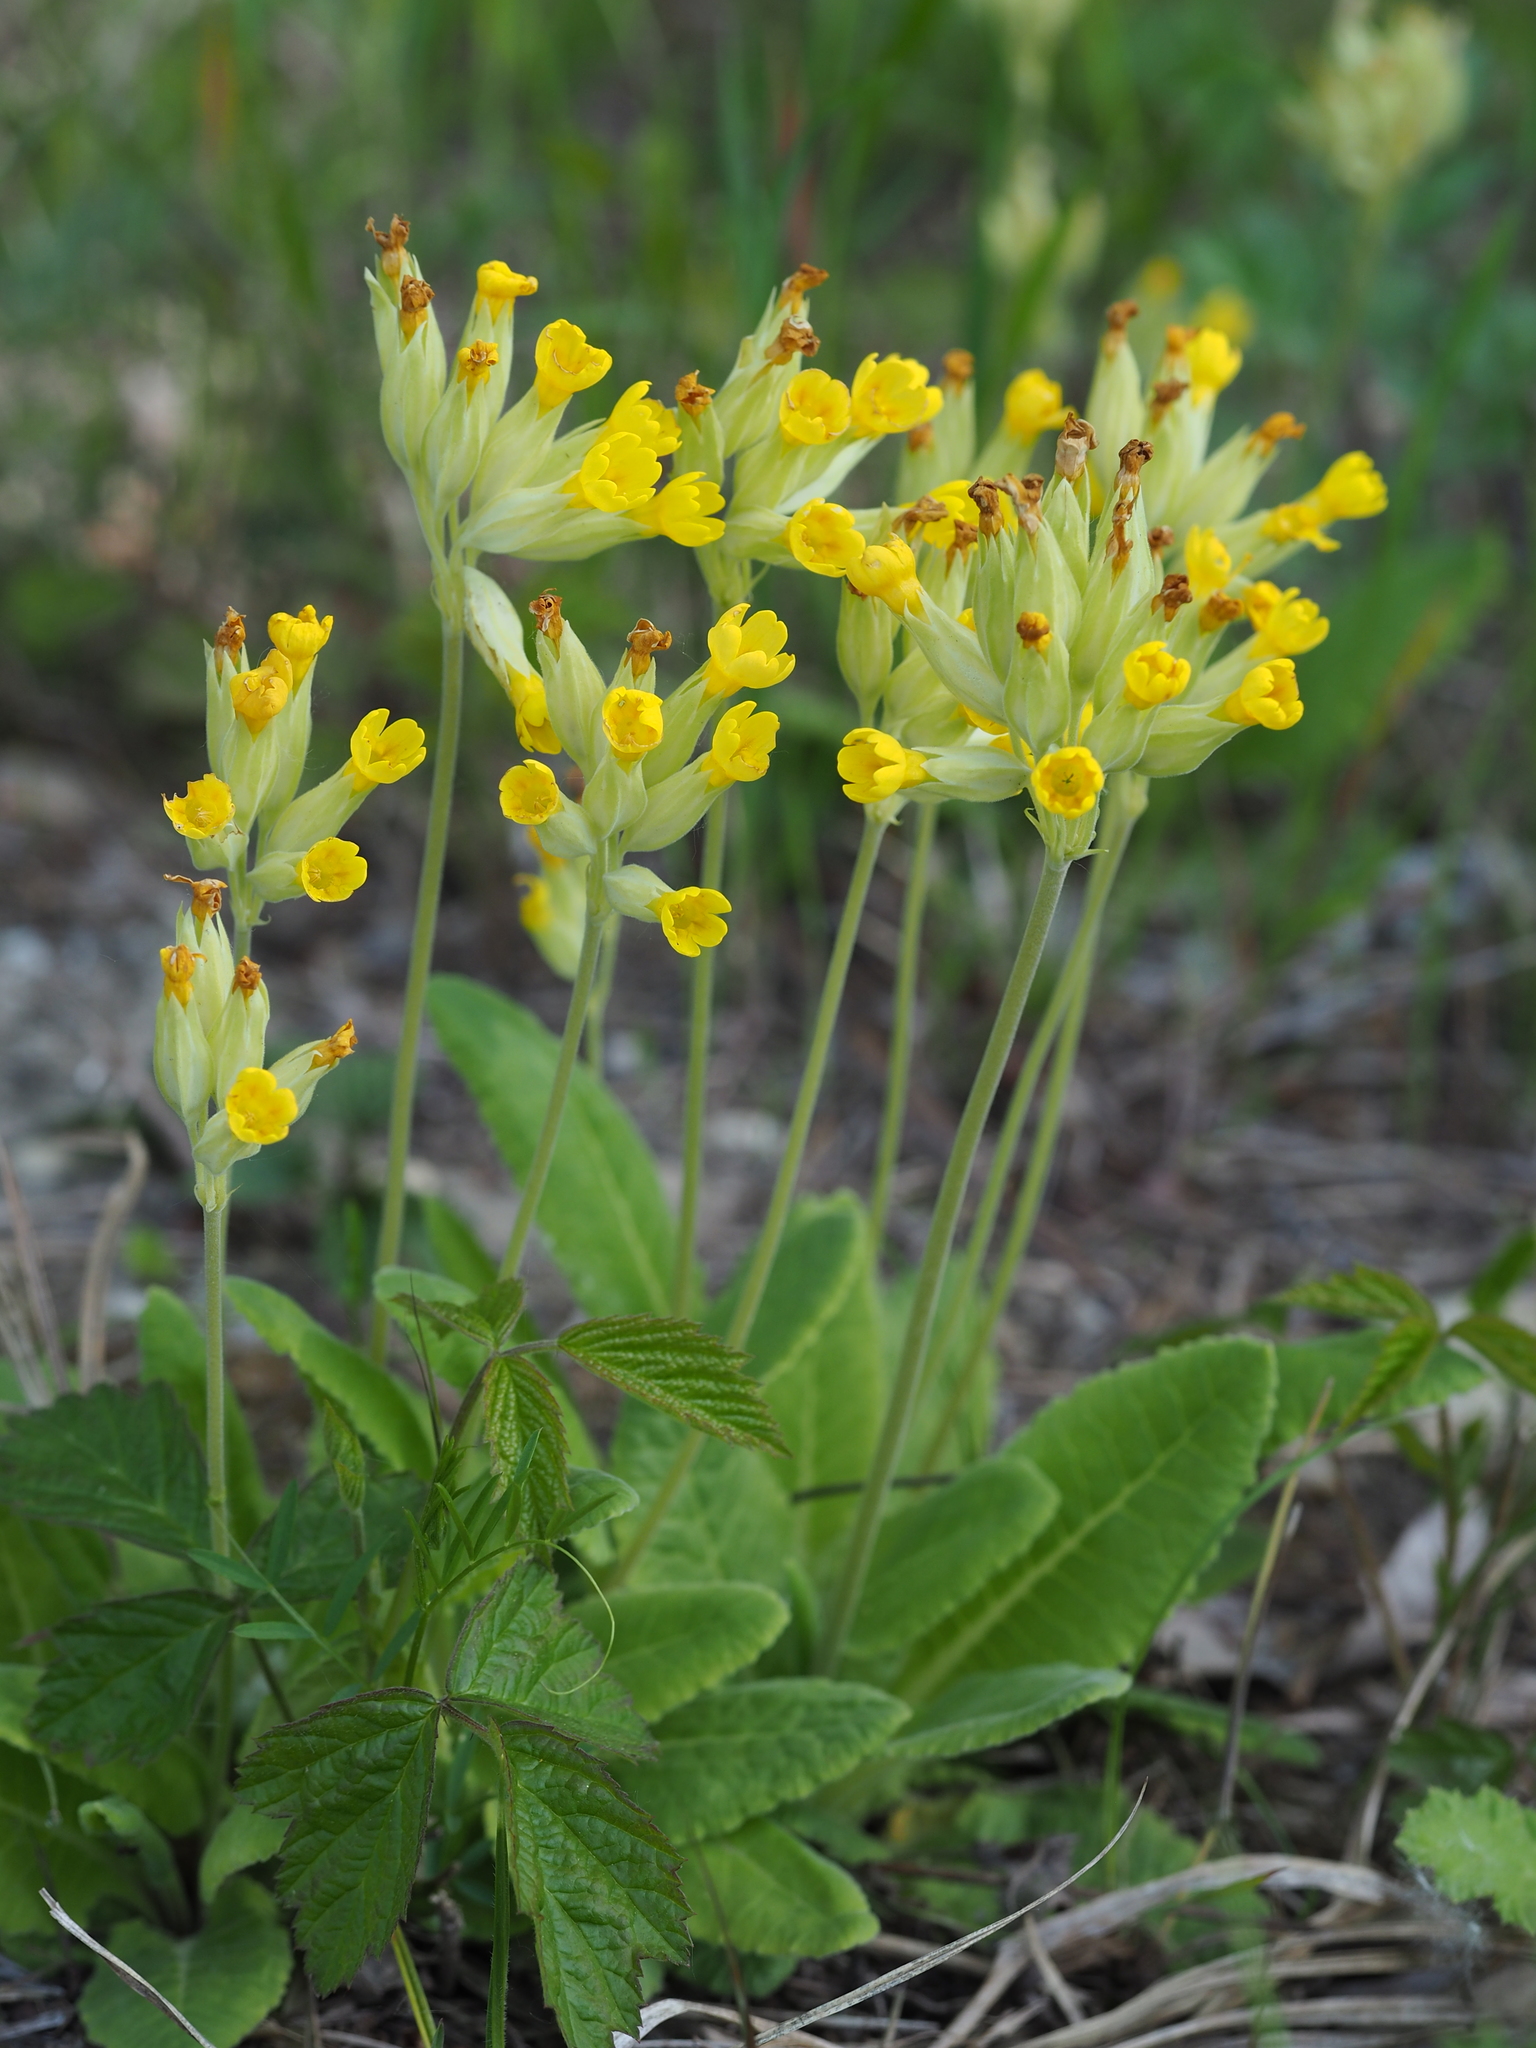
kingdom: Plantae
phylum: Tracheophyta
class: Magnoliopsida
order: Ericales
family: Primulaceae
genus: Primula
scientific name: Primula veris
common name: Cowslip
